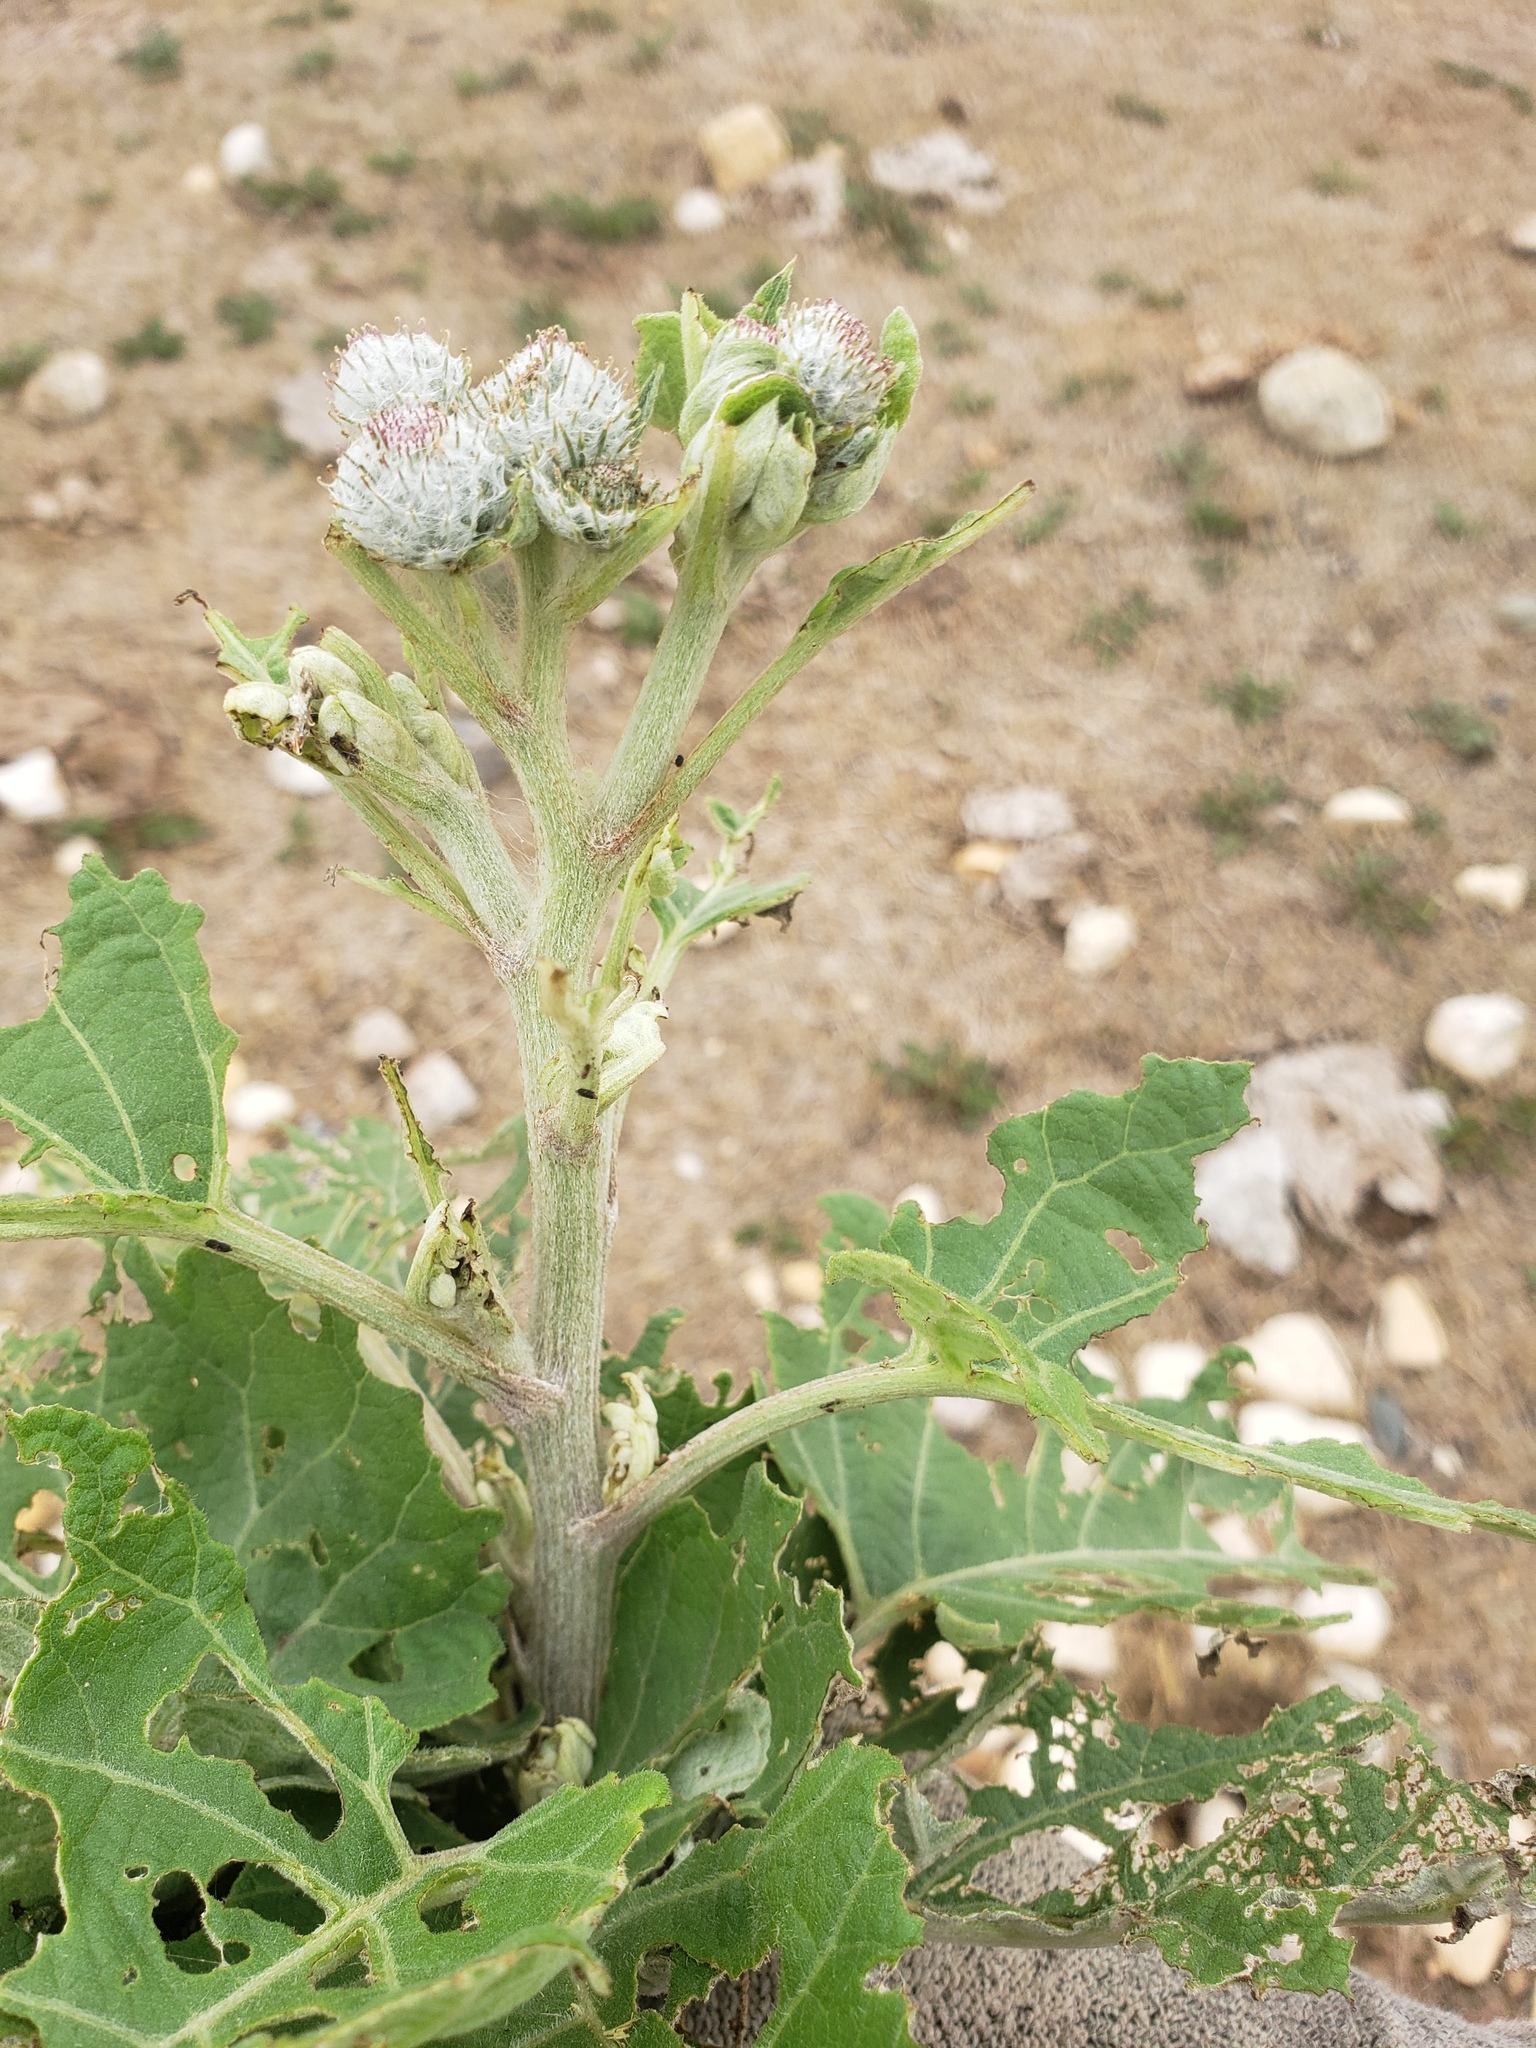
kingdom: Plantae
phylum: Tracheophyta
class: Magnoliopsida
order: Asterales
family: Asteraceae
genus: Arctium
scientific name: Arctium tomentosum
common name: Woolly burdock
